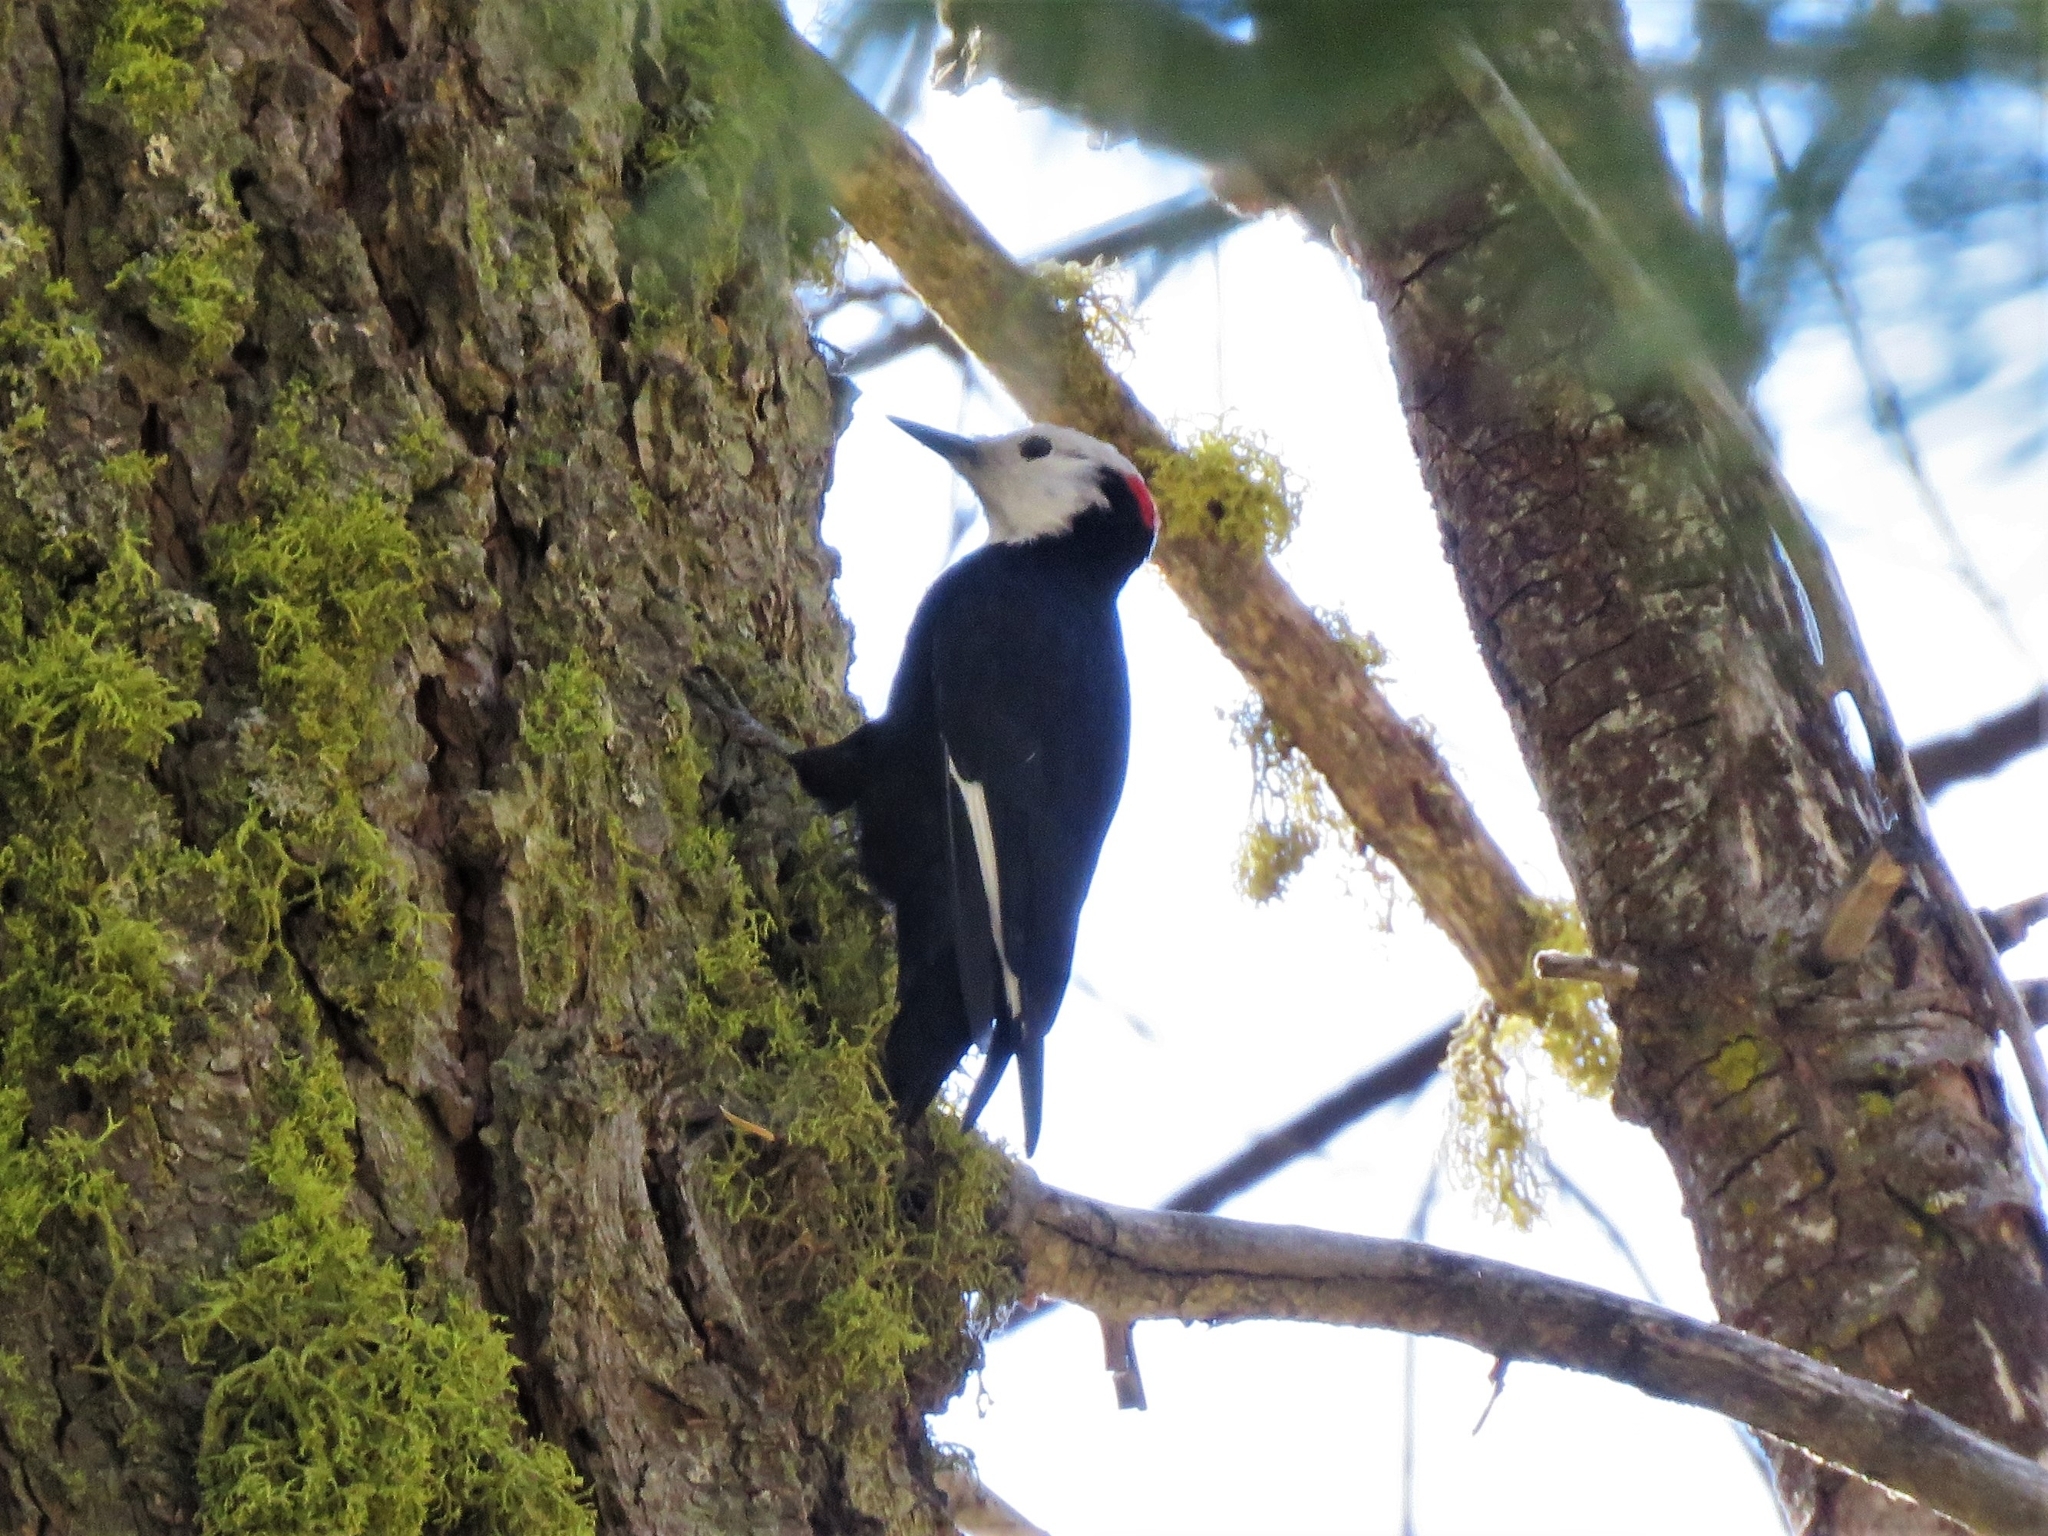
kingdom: Animalia
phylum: Chordata
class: Aves
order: Piciformes
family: Picidae
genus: Leuconotopicus
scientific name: Leuconotopicus albolarvatus
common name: White-headed woodpecker
